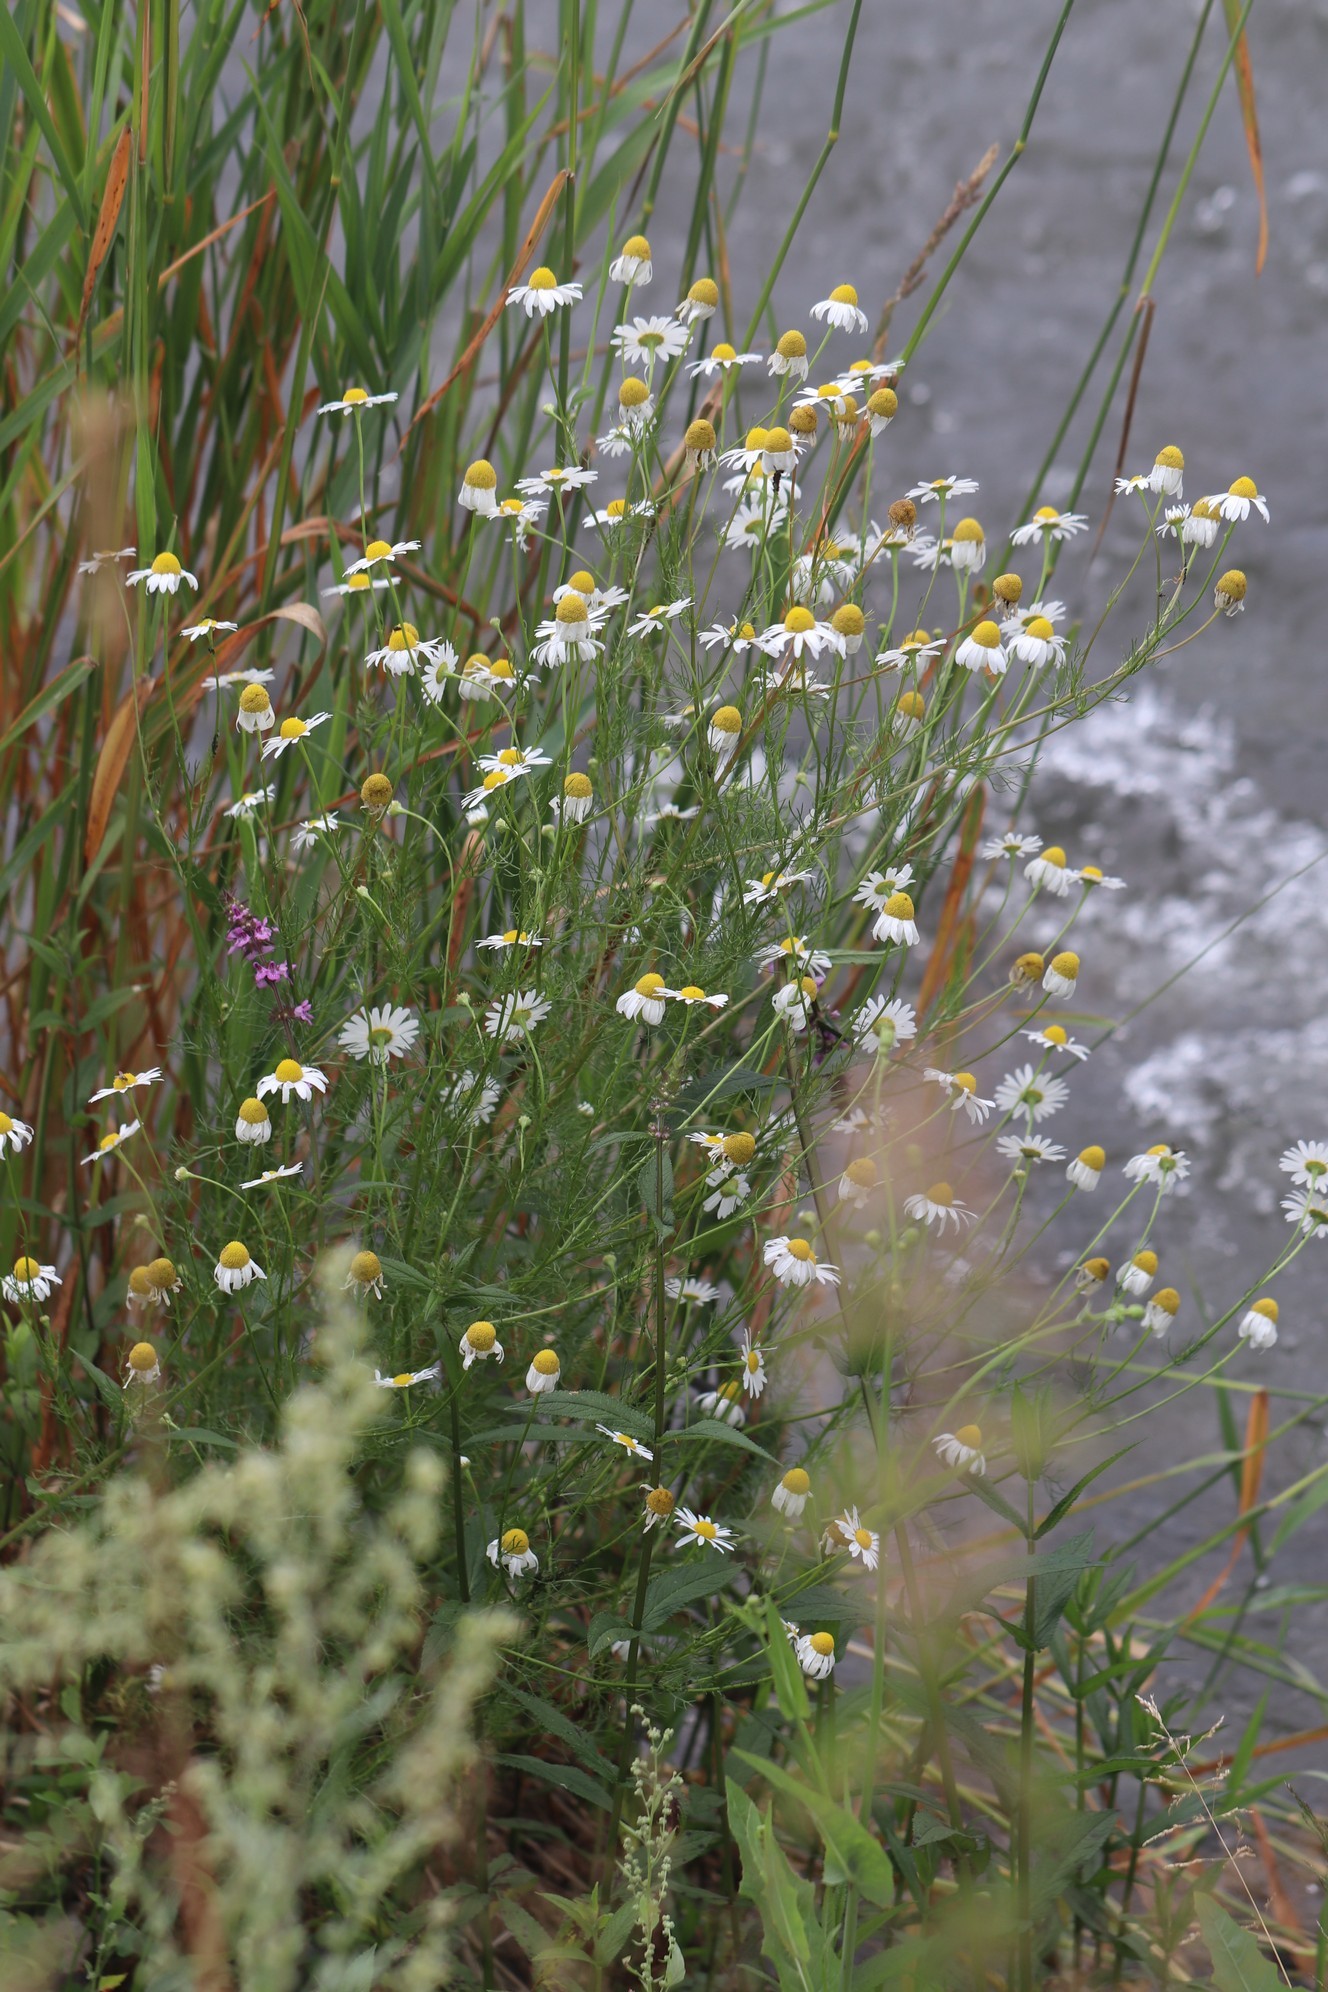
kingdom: Plantae
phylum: Tracheophyta
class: Magnoliopsida
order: Asterales
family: Asteraceae
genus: Tripleurospermum
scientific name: Tripleurospermum inodorum
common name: Scentless mayweed
